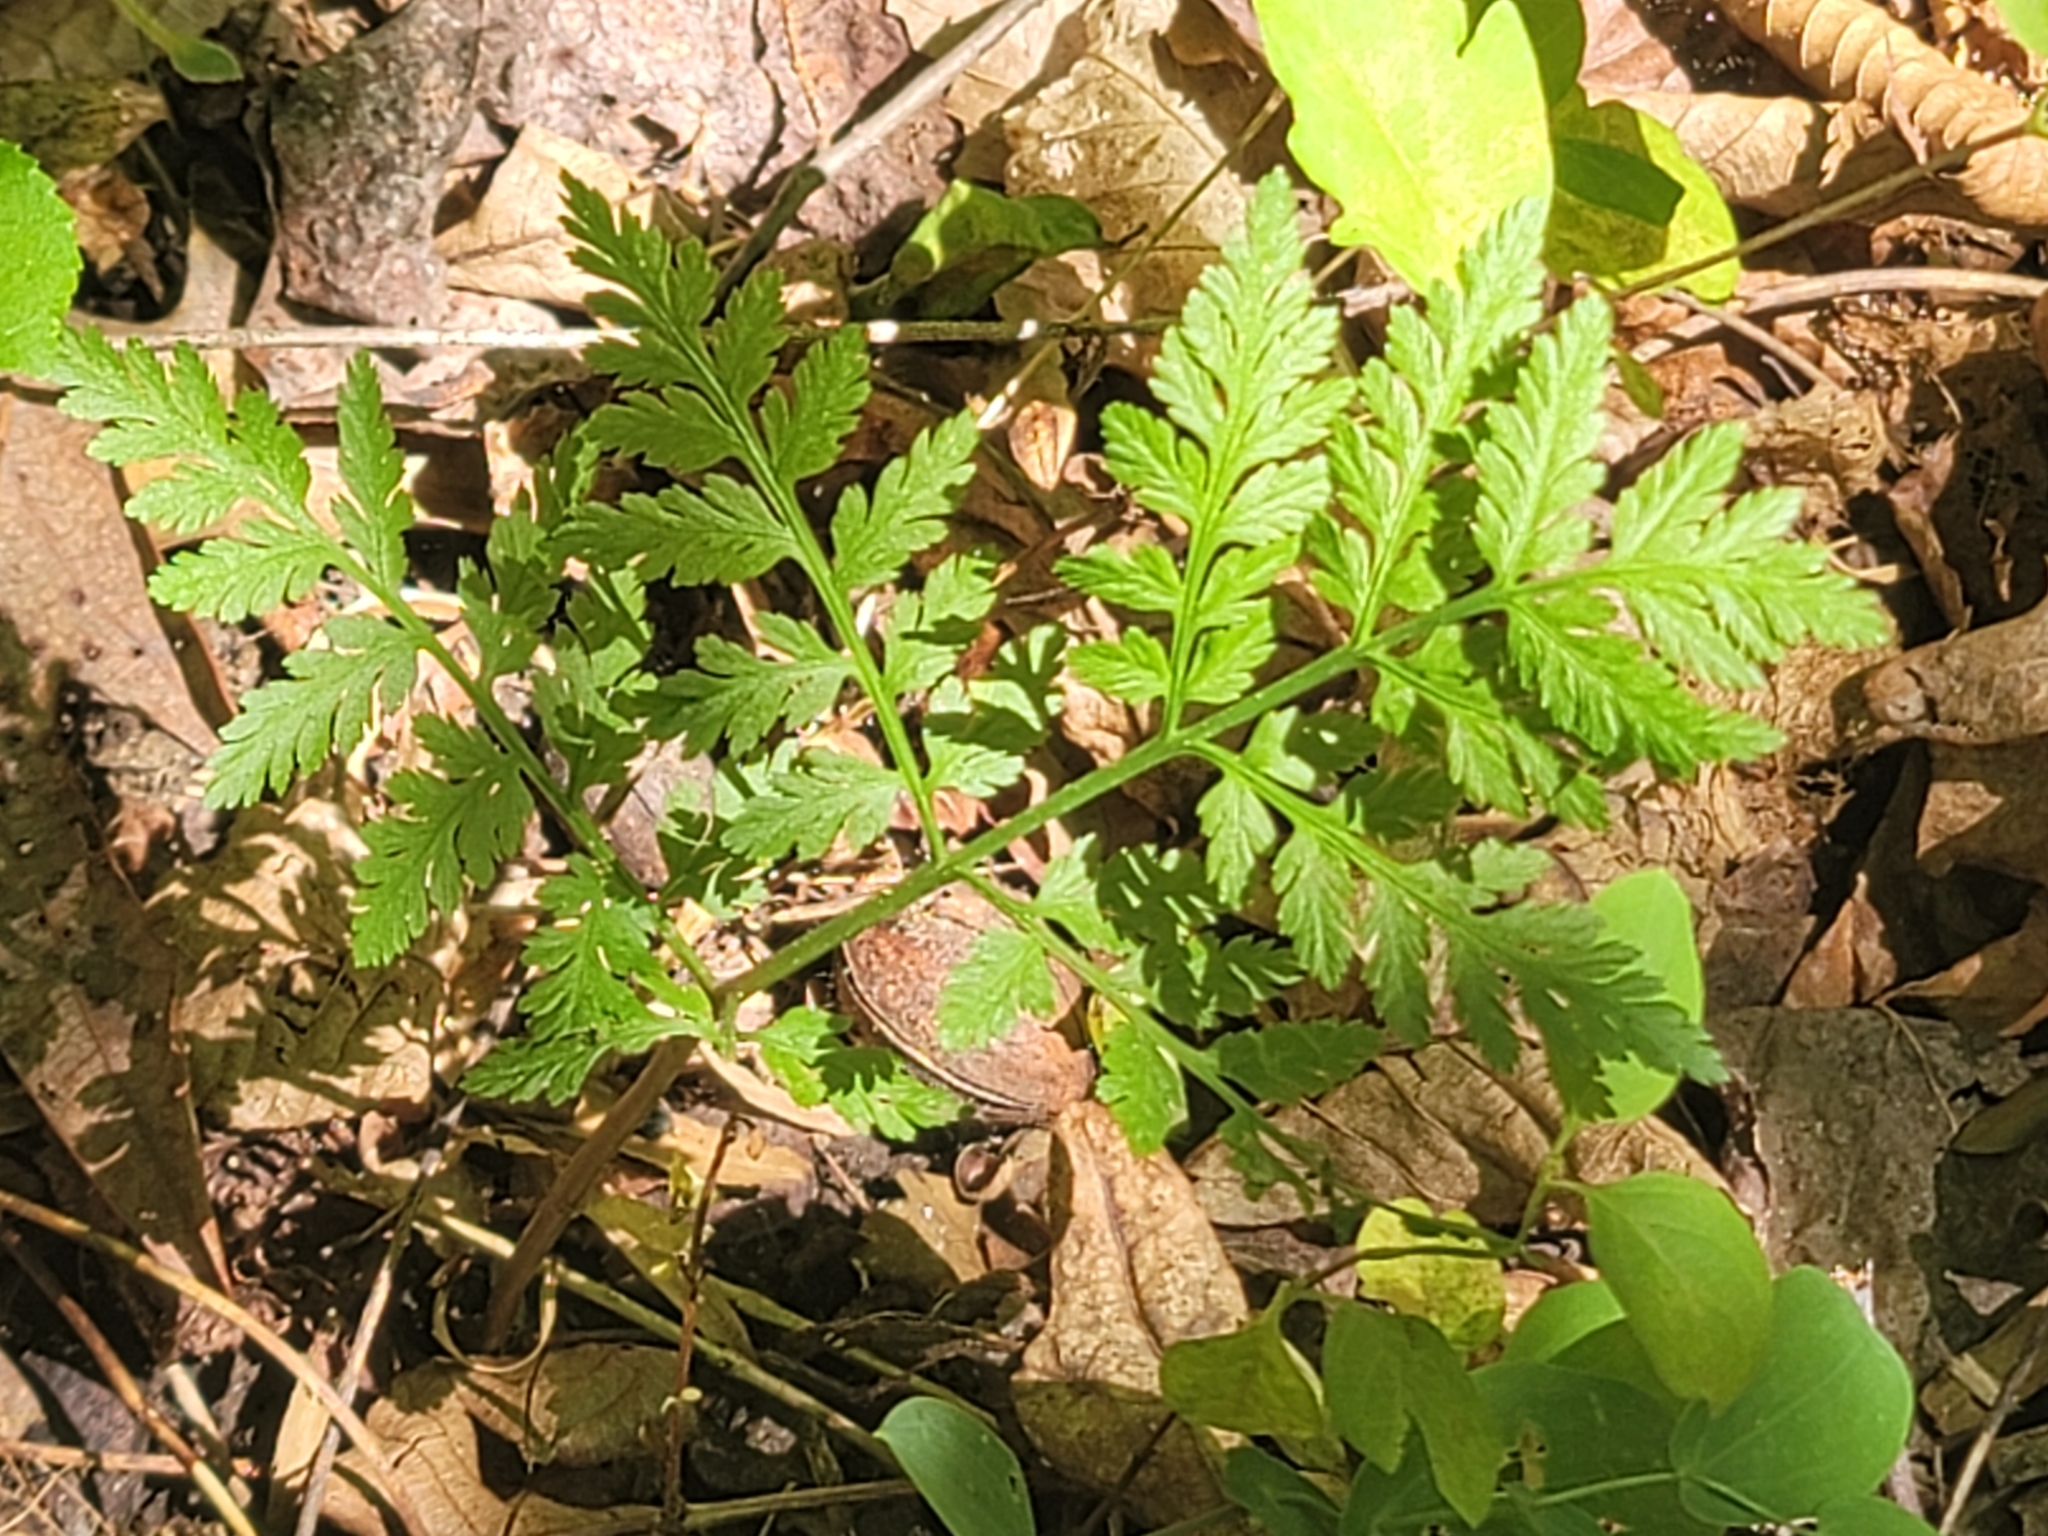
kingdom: Plantae
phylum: Tracheophyta
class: Polypodiopsida
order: Ophioglossales
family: Ophioglossaceae
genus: Botrypus
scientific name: Botrypus virginianus
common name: Common grapefern
